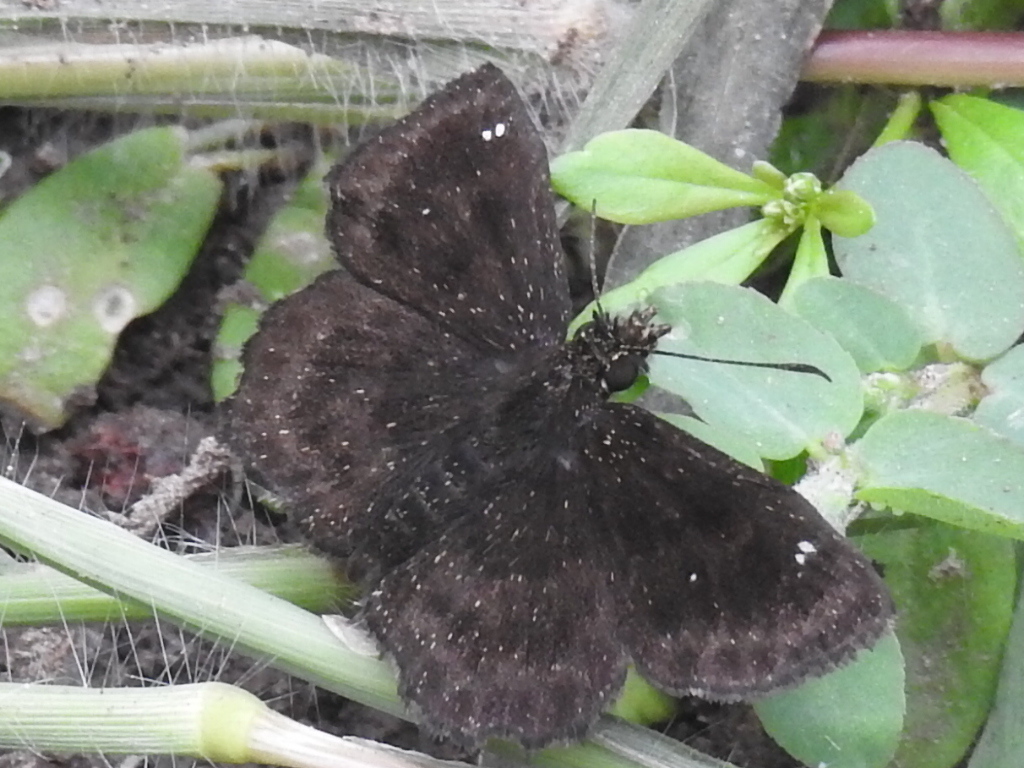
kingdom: Animalia
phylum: Arthropoda
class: Insecta
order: Lepidoptera
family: Hesperiidae
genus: Staphylus
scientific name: Staphylus mazans
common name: Mazans scallopwing
